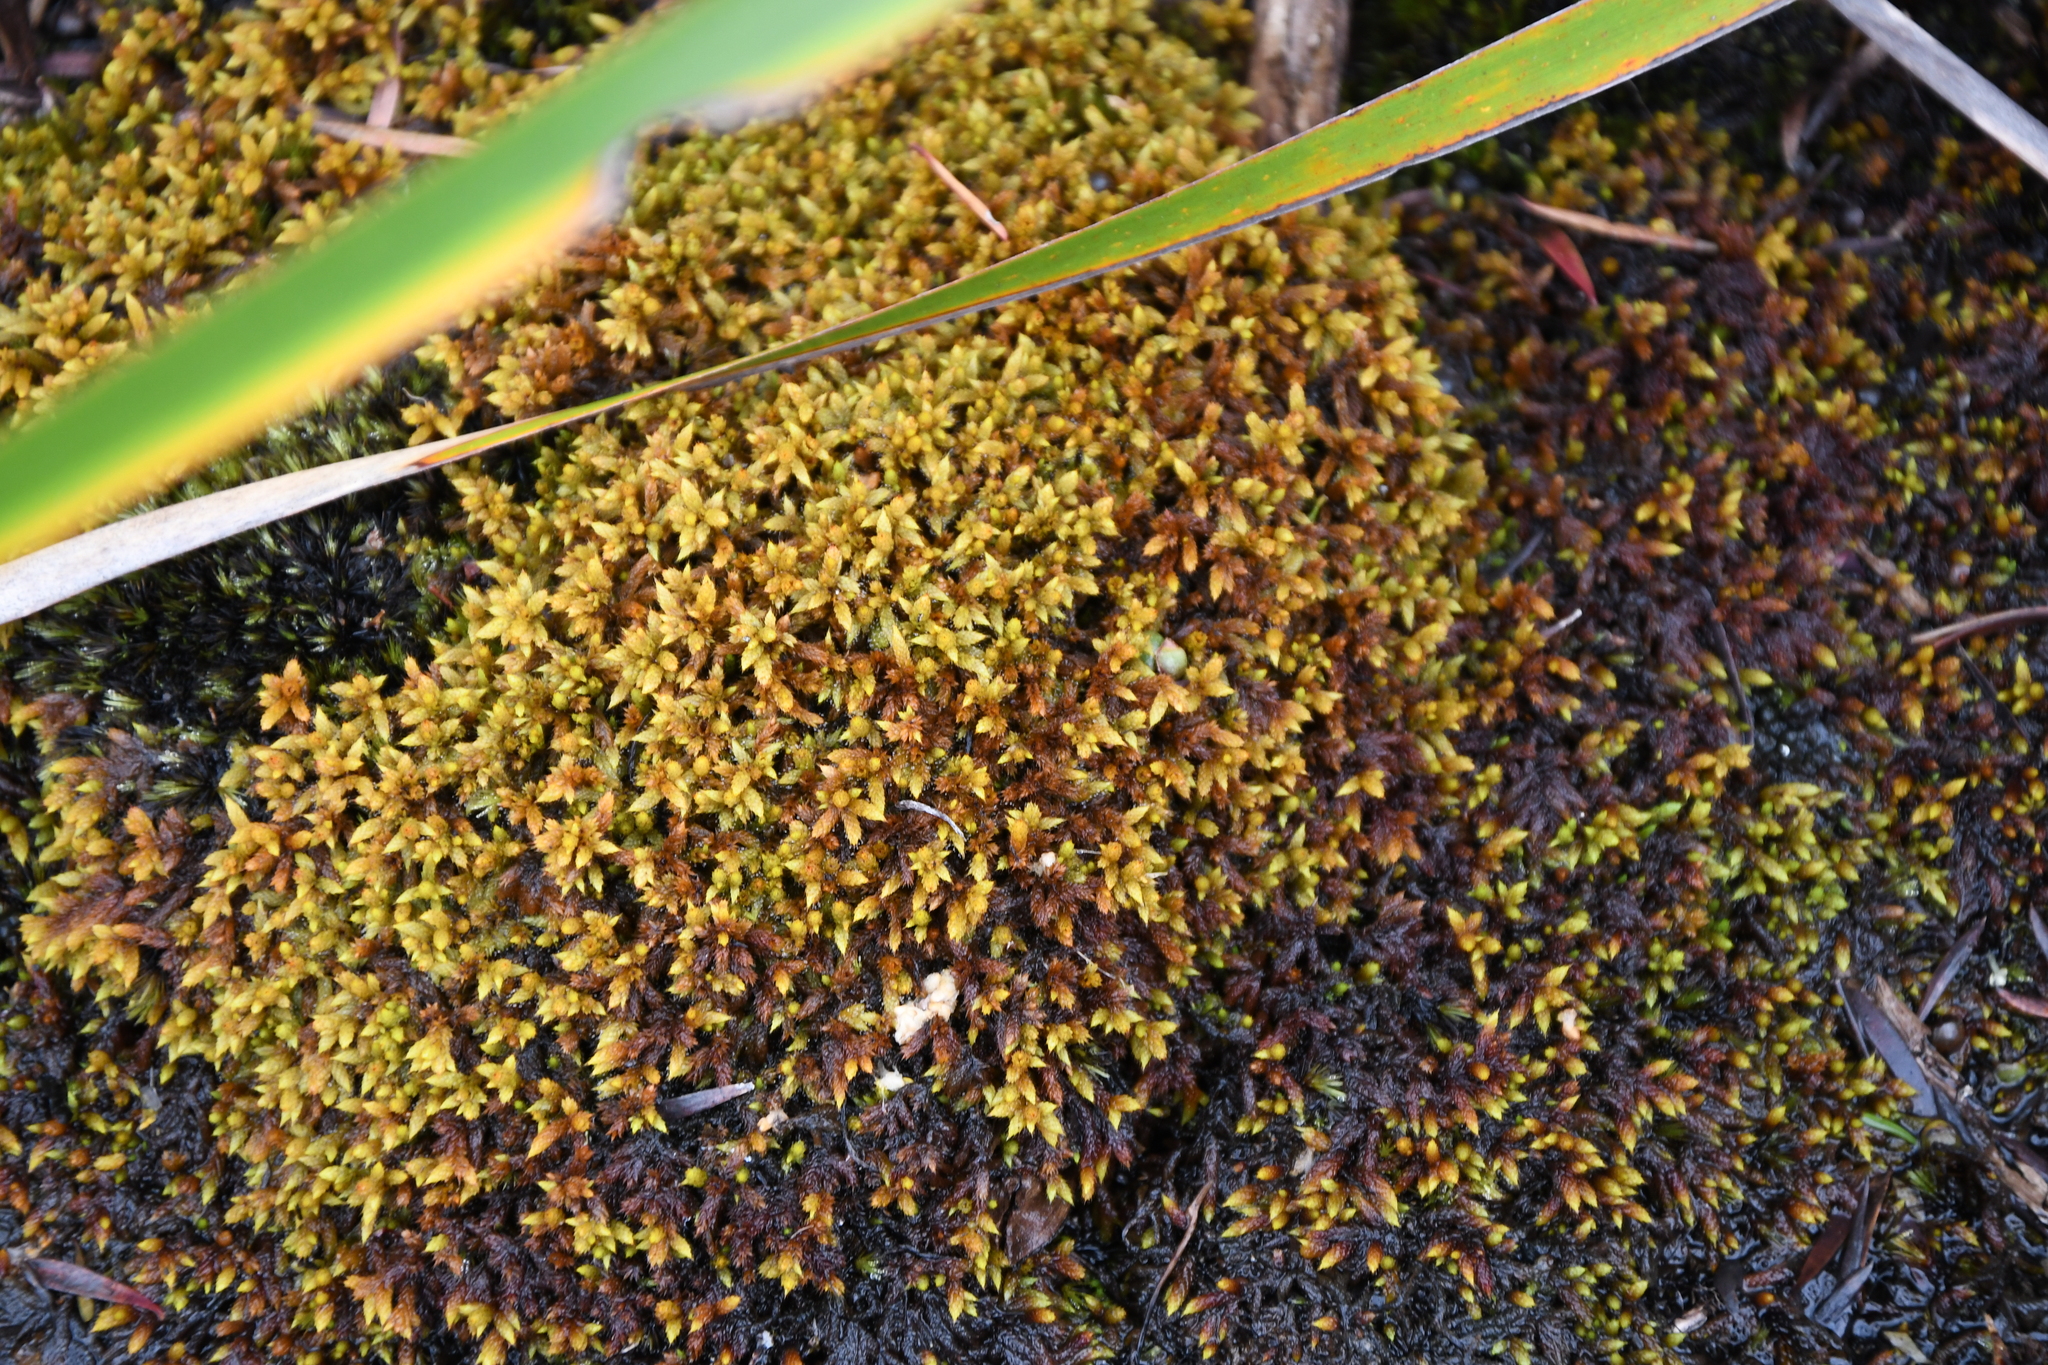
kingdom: Plantae
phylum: Bryophyta
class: Bryopsida
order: Hedwigiales
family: Hedwigiaceae
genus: Rhacocarpus
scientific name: Rhacocarpus purpurascens
